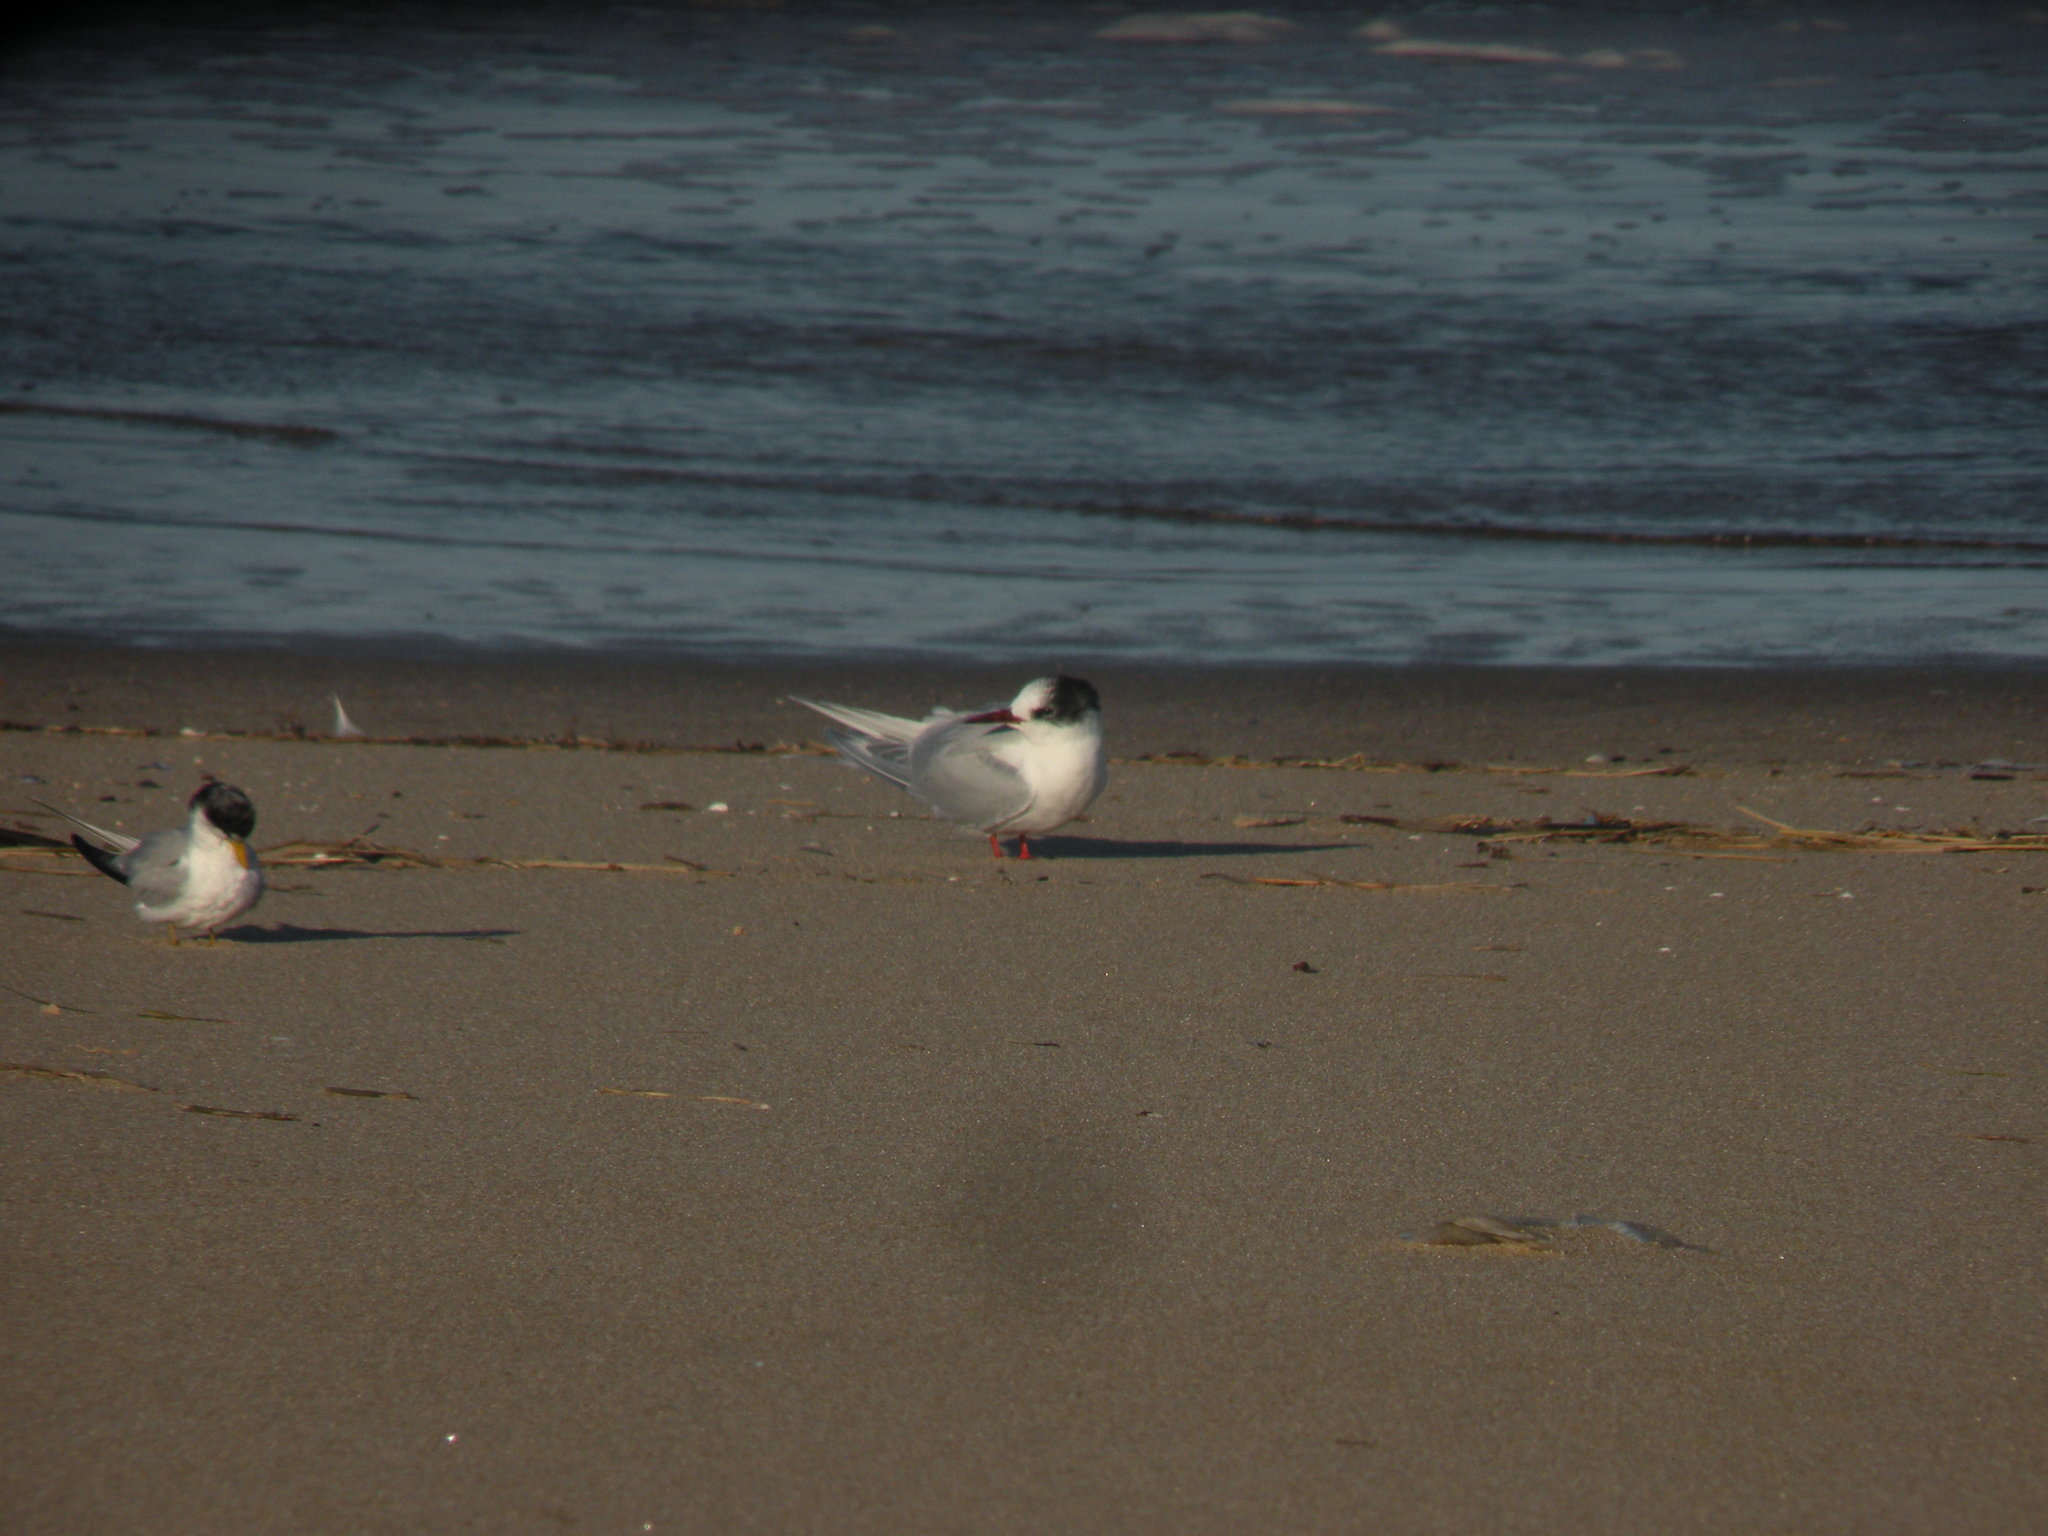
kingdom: Animalia
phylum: Chordata
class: Aves
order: Charadriiformes
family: Laridae
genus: Sterna
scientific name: Sterna hirundinacea
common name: South american tern
